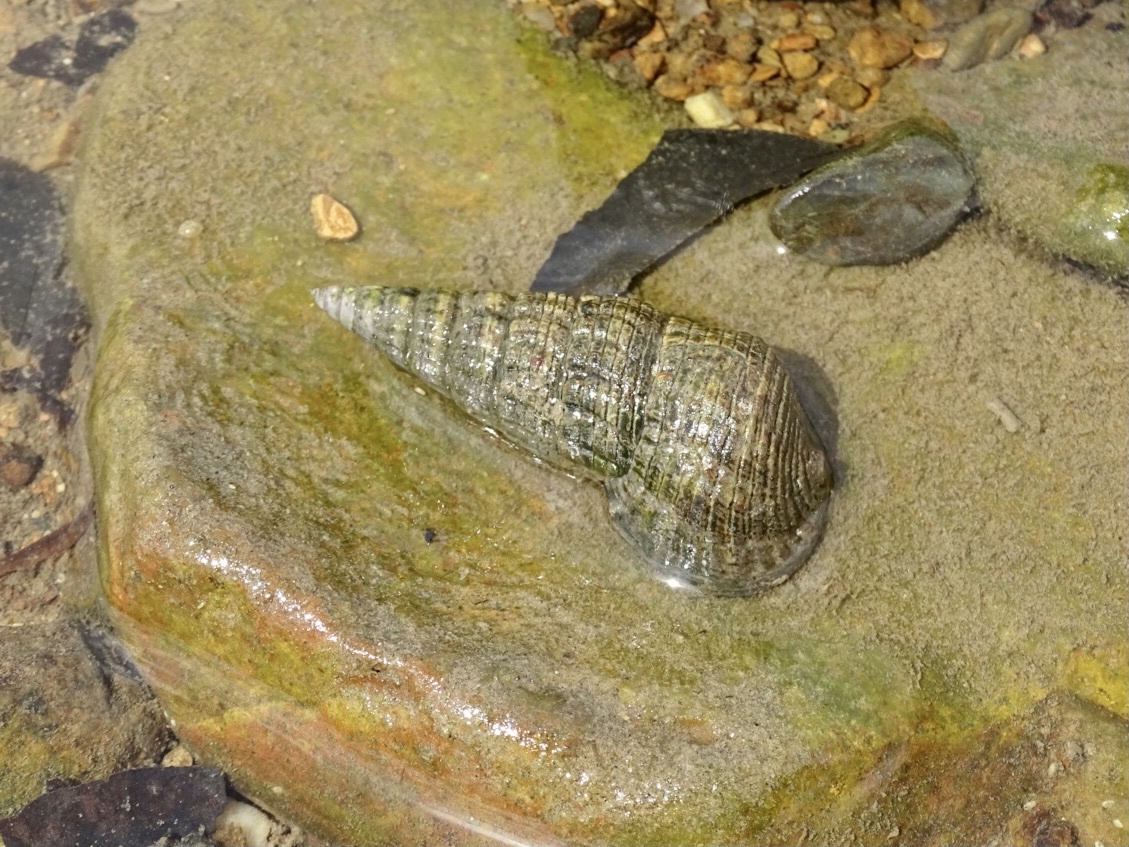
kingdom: Animalia
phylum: Mollusca
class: Gastropoda
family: Potamididae
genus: Terebralia
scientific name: Terebralia sulcata
